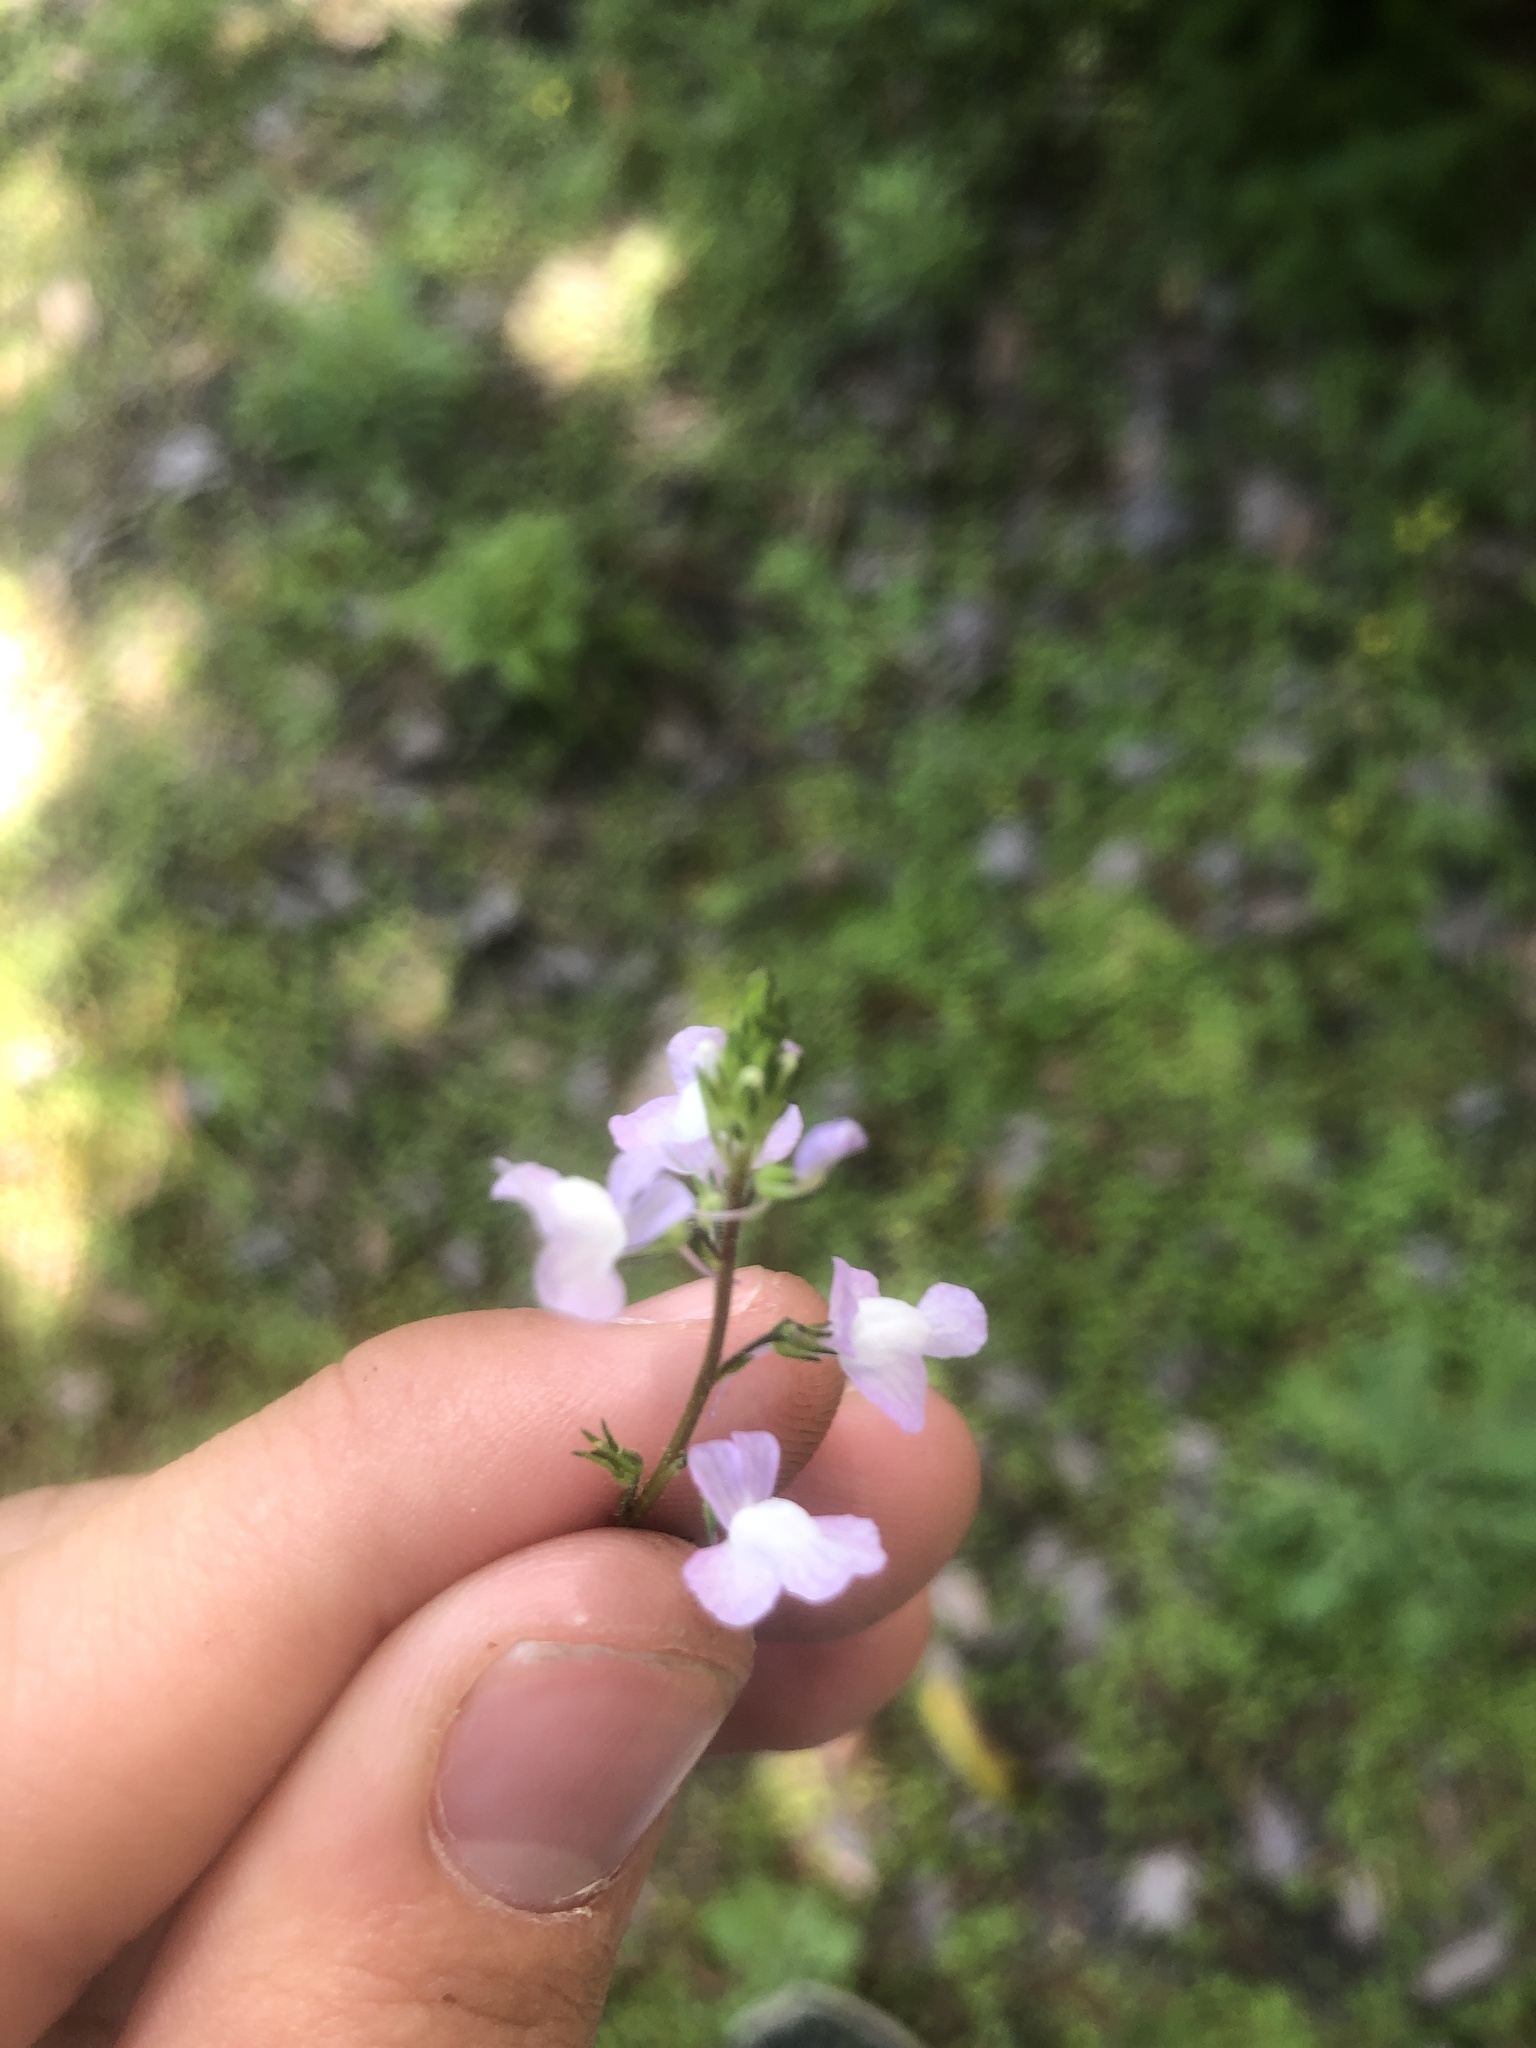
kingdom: Plantae
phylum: Tracheophyta
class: Magnoliopsida
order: Lamiales
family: Plantaginaceae
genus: Nuttallanthus
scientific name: Nuttallanthus canadensis
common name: Blue toadflax
